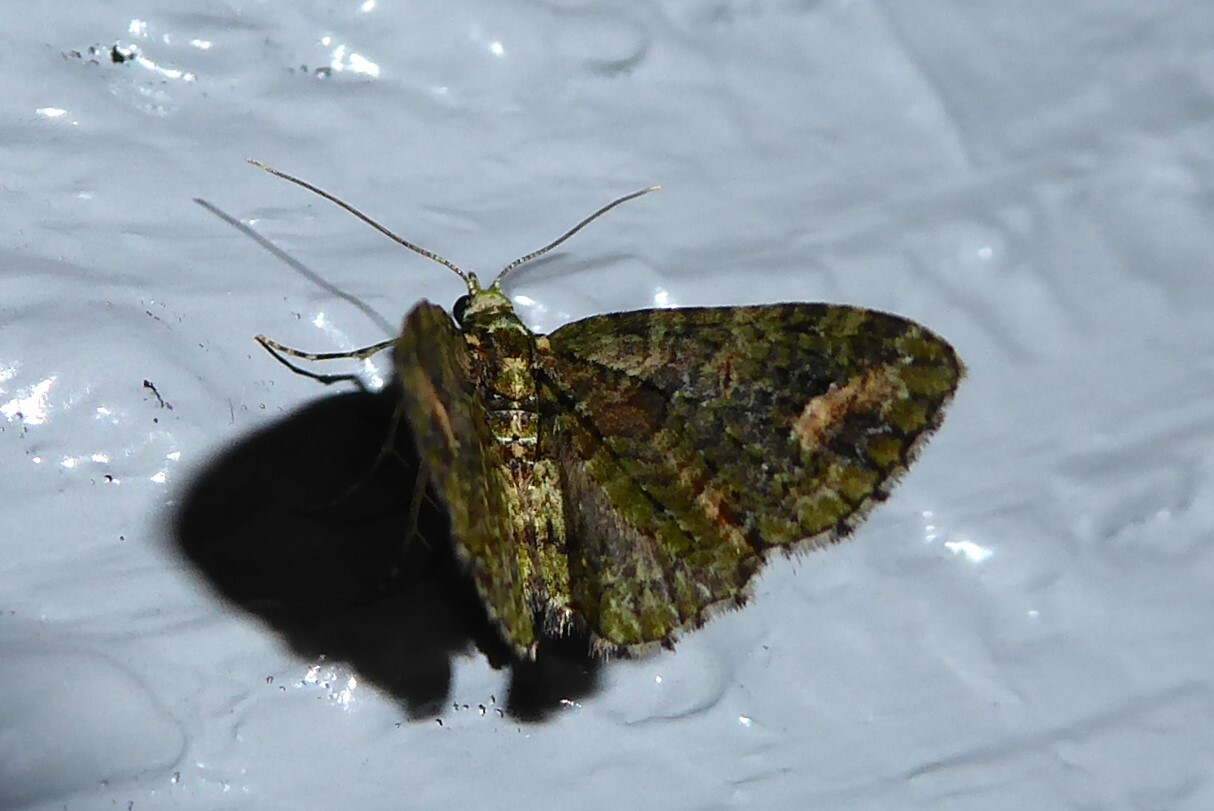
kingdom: Animalia
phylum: Arthropoda
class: Insecta
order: Lepidoptera
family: Geometridae
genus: Idaea
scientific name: Idaea mutanda
